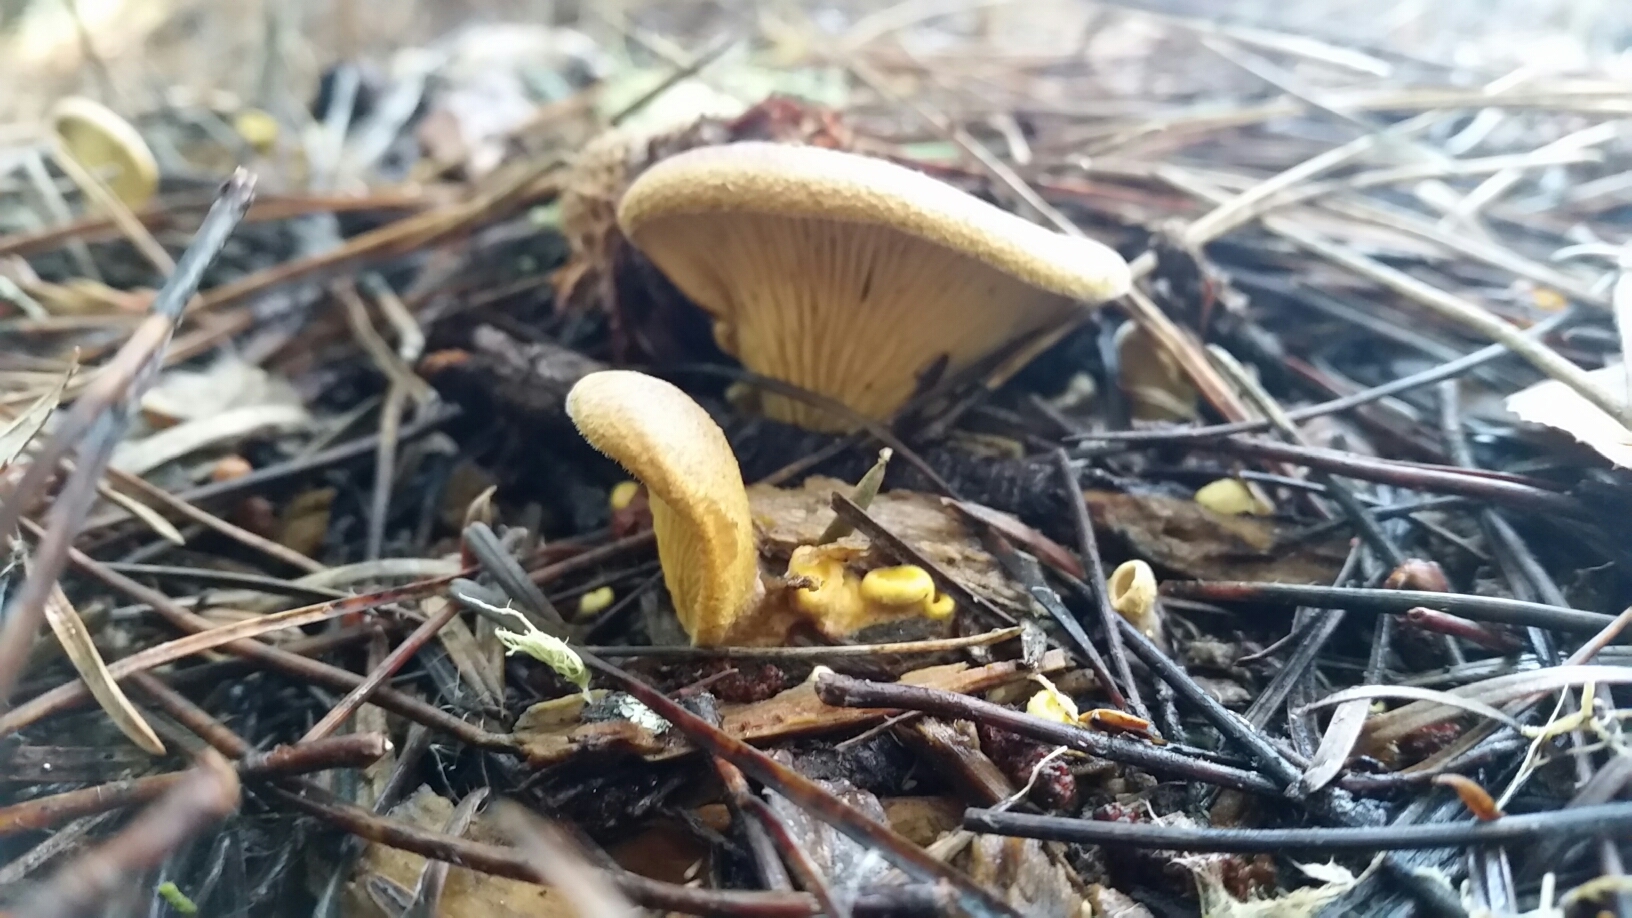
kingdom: Fungi
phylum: Basidiomycota
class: Agaricomycetes
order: Boletales
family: Tapinellaceae
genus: Tapinella
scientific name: Tapinella panuoides
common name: Oyster rollrim
